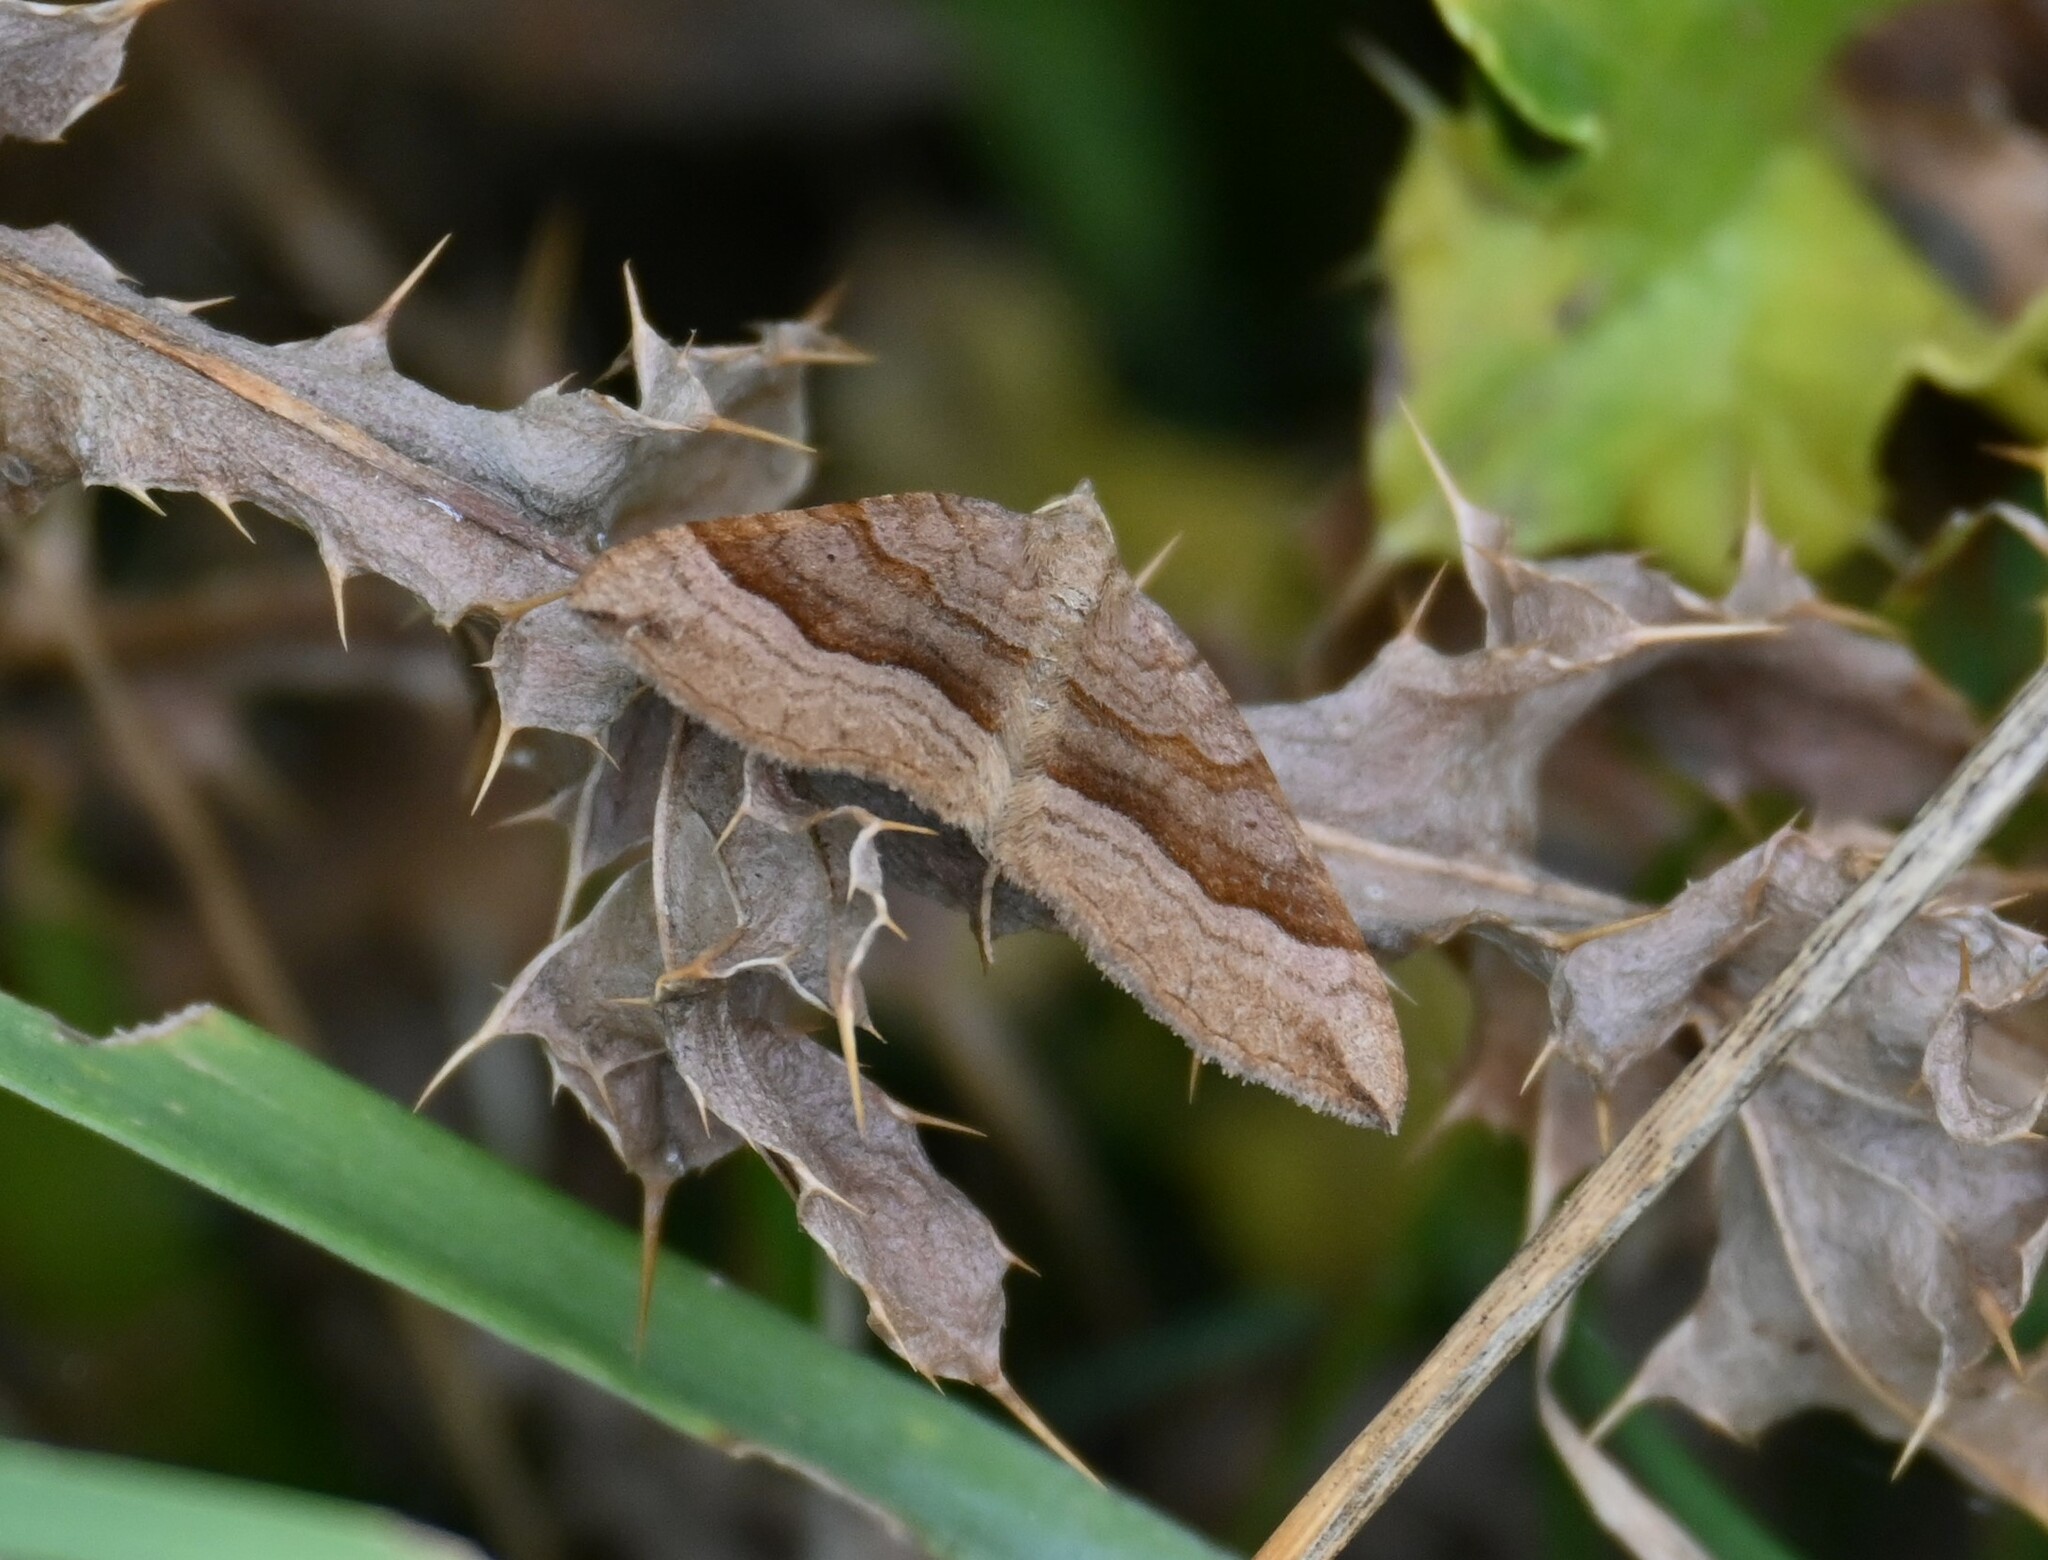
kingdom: Animalia
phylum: Arthropoda
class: Insecta
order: Lepidoptera
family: Geometridae
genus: Scotopteryx
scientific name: Scotopteryx chenopodiata
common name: Shaded broad-bar
